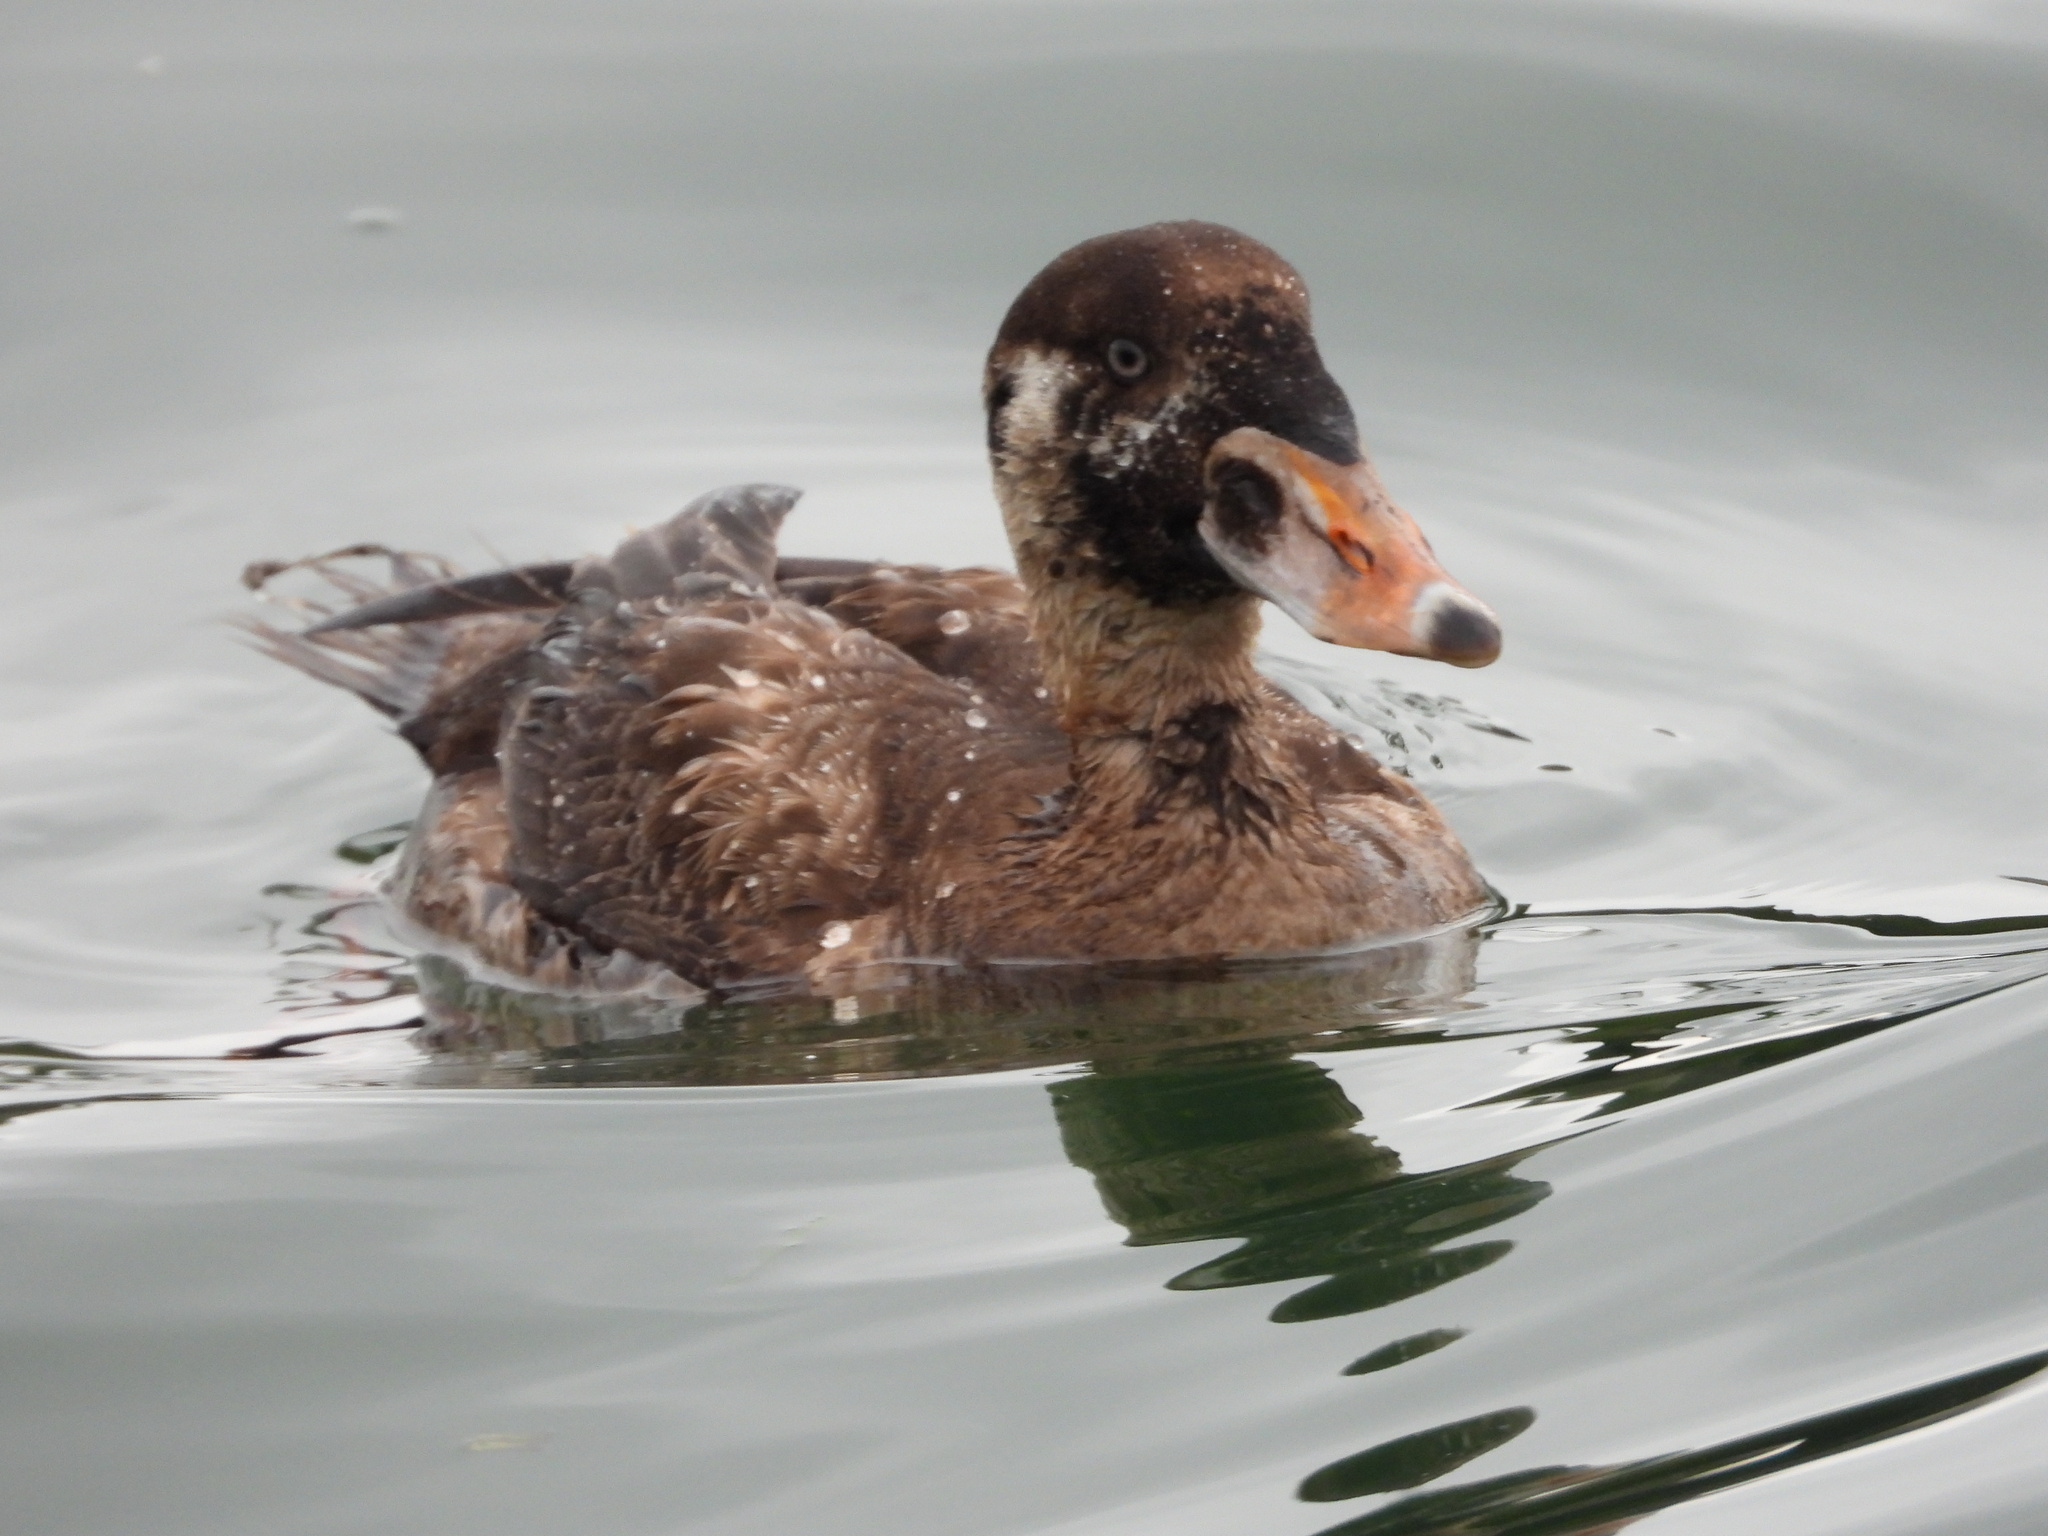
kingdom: Animalia
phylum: Chordata
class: Aves
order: Anseriformes
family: Anatidae
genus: Melanitta
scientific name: Melanitta perspicillata
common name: Surf scoter
